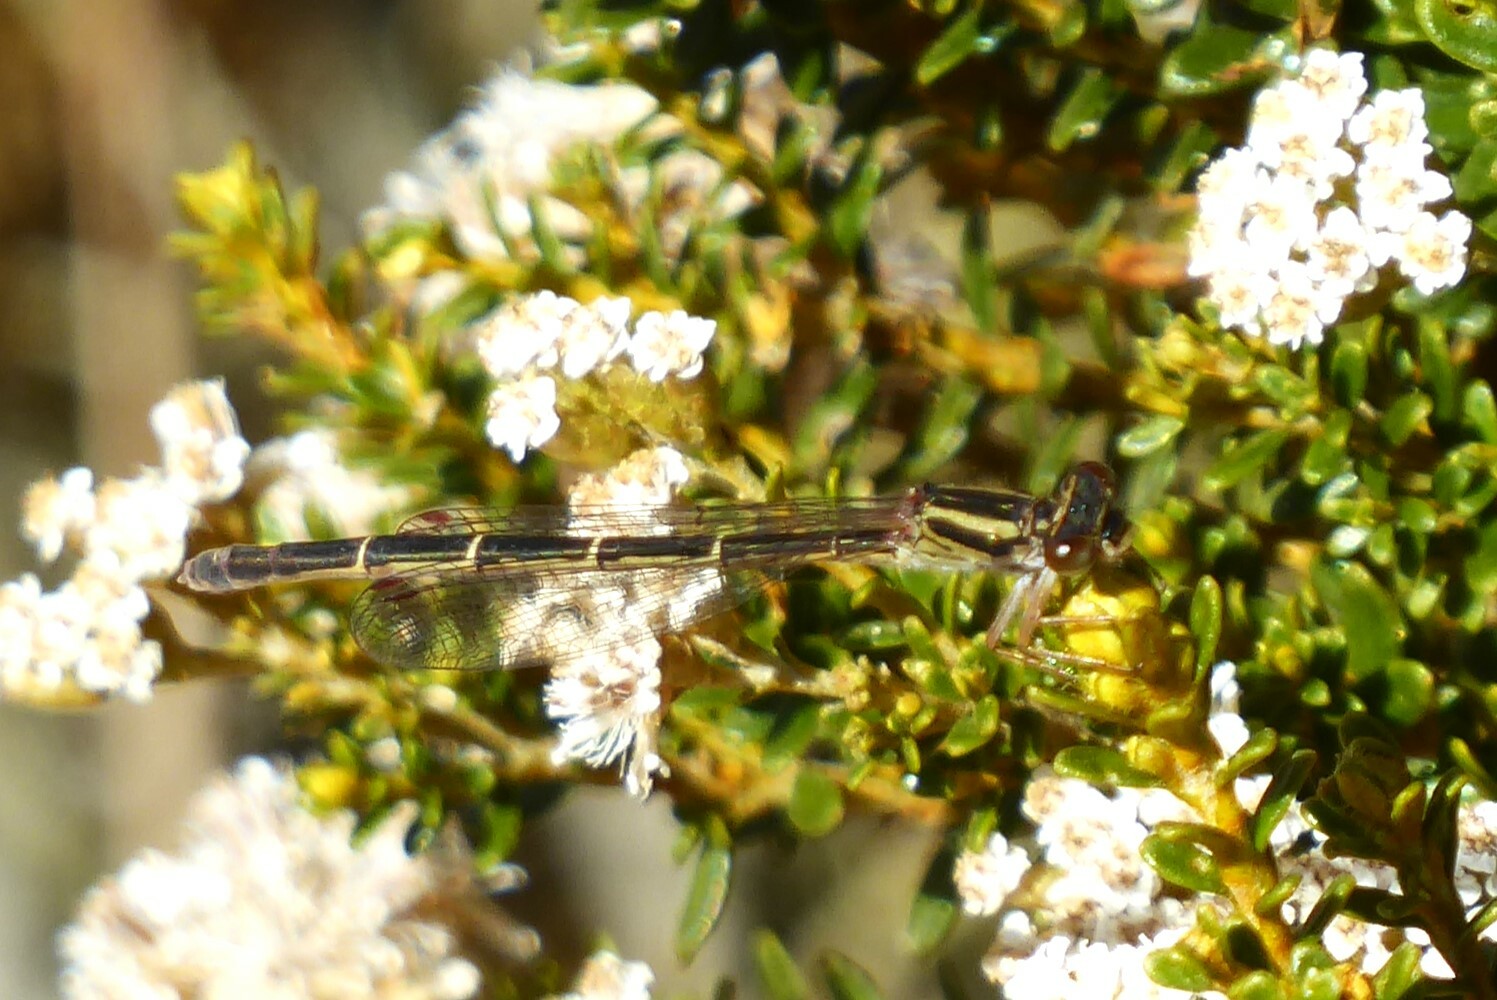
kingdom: Animalia
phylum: Arthropoda
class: Insecta
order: Odonata
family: Coenagrionidae
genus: Xanthocnemis
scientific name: Xanthocnemis zealandica
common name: Common redcoat damselfly
